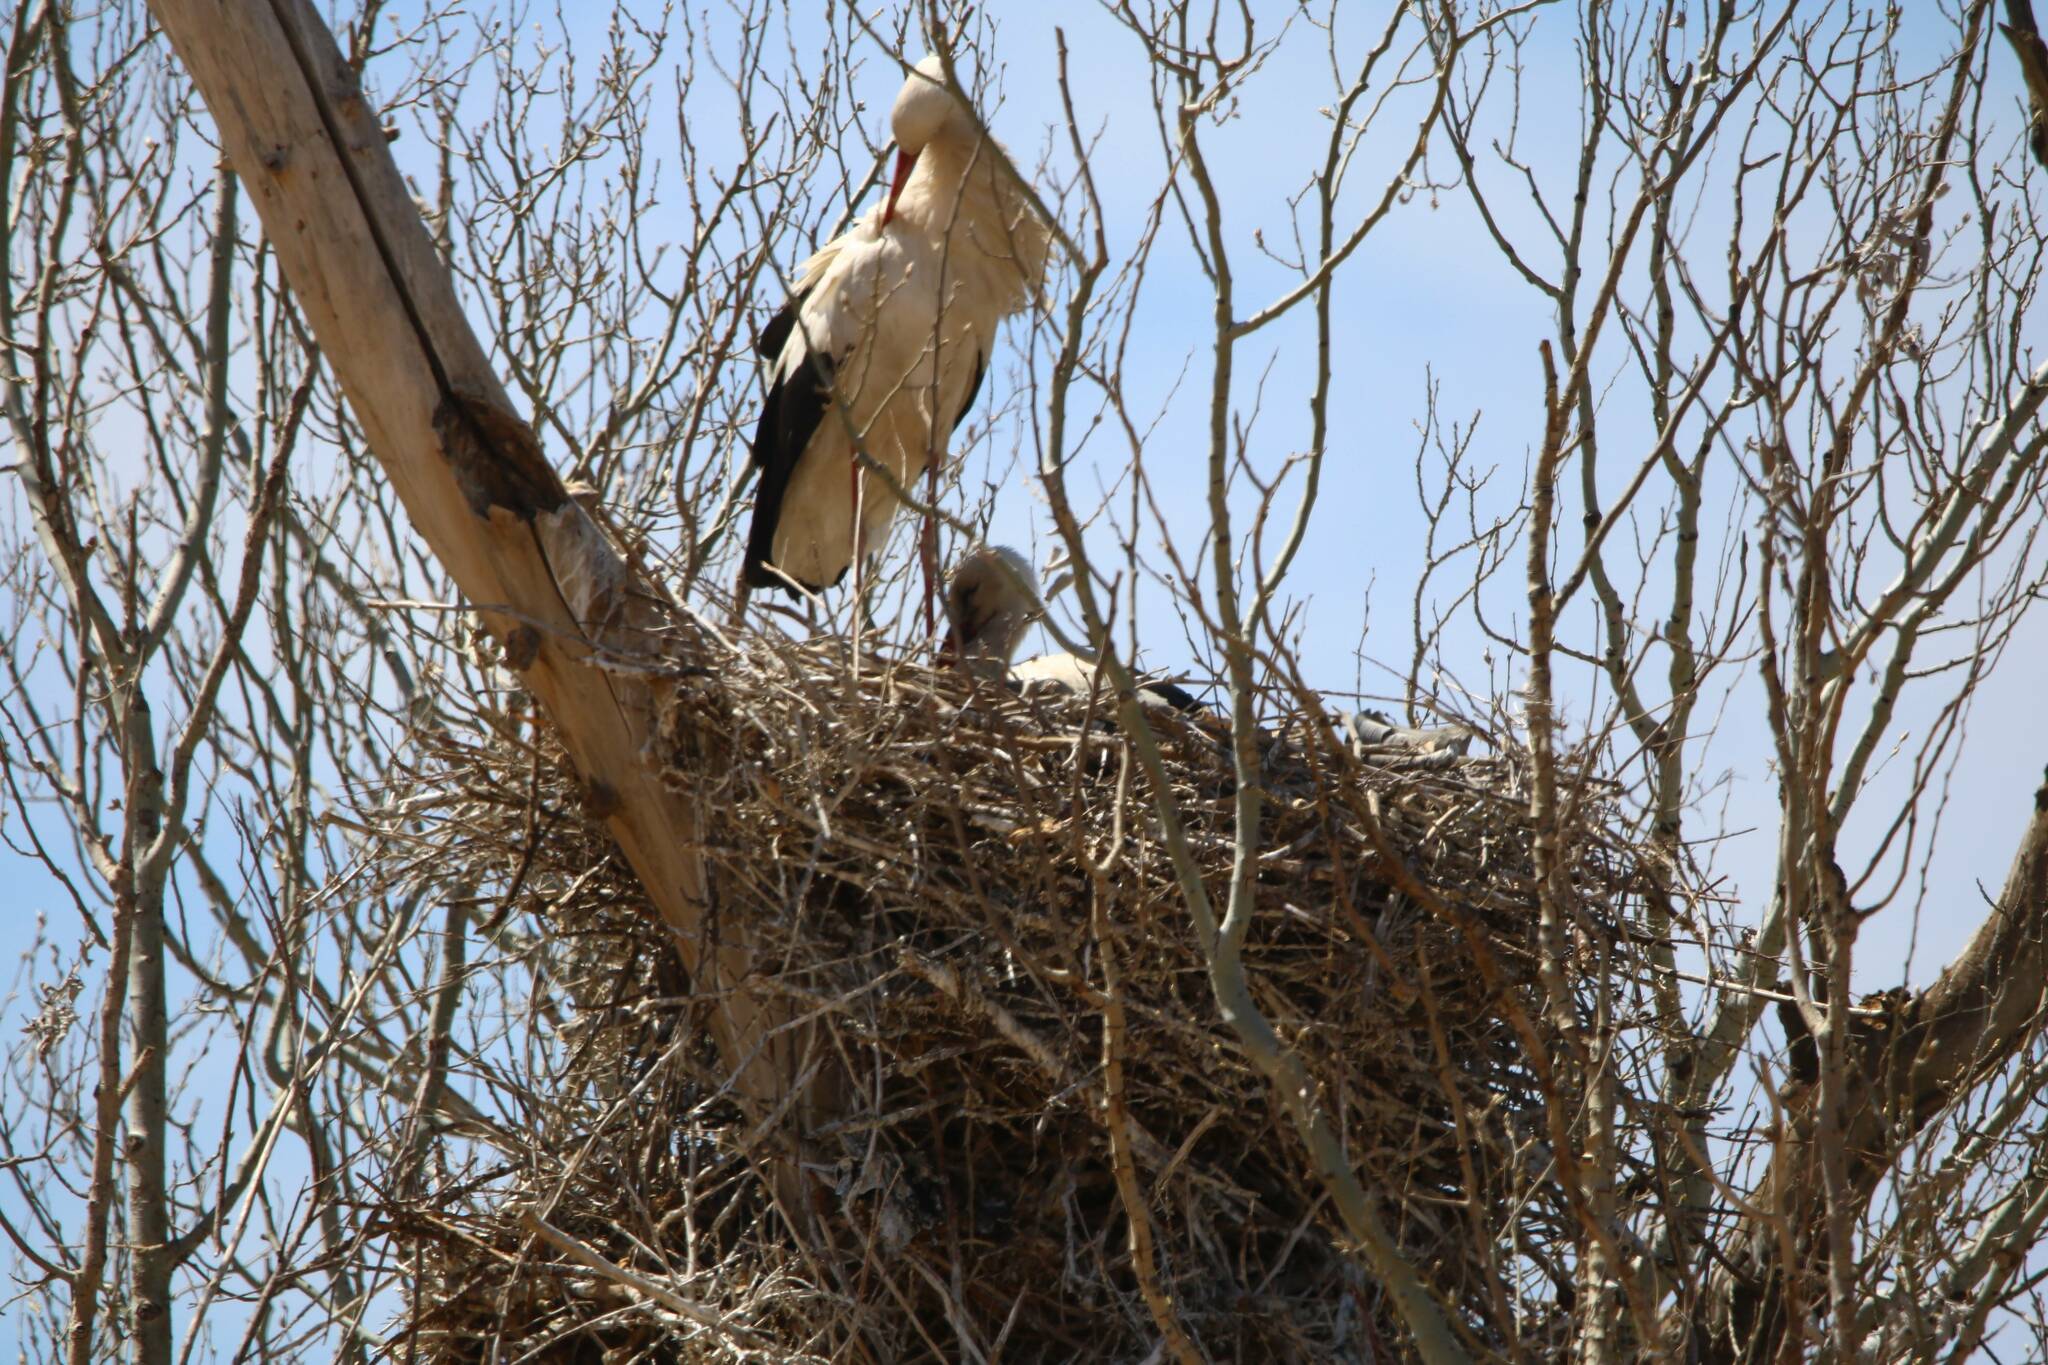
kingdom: Animalia
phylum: Chordata
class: Aves
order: Ciconiiformes
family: Ciconiidae
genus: Ciconia
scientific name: Ciconia ciconia
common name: White stork
